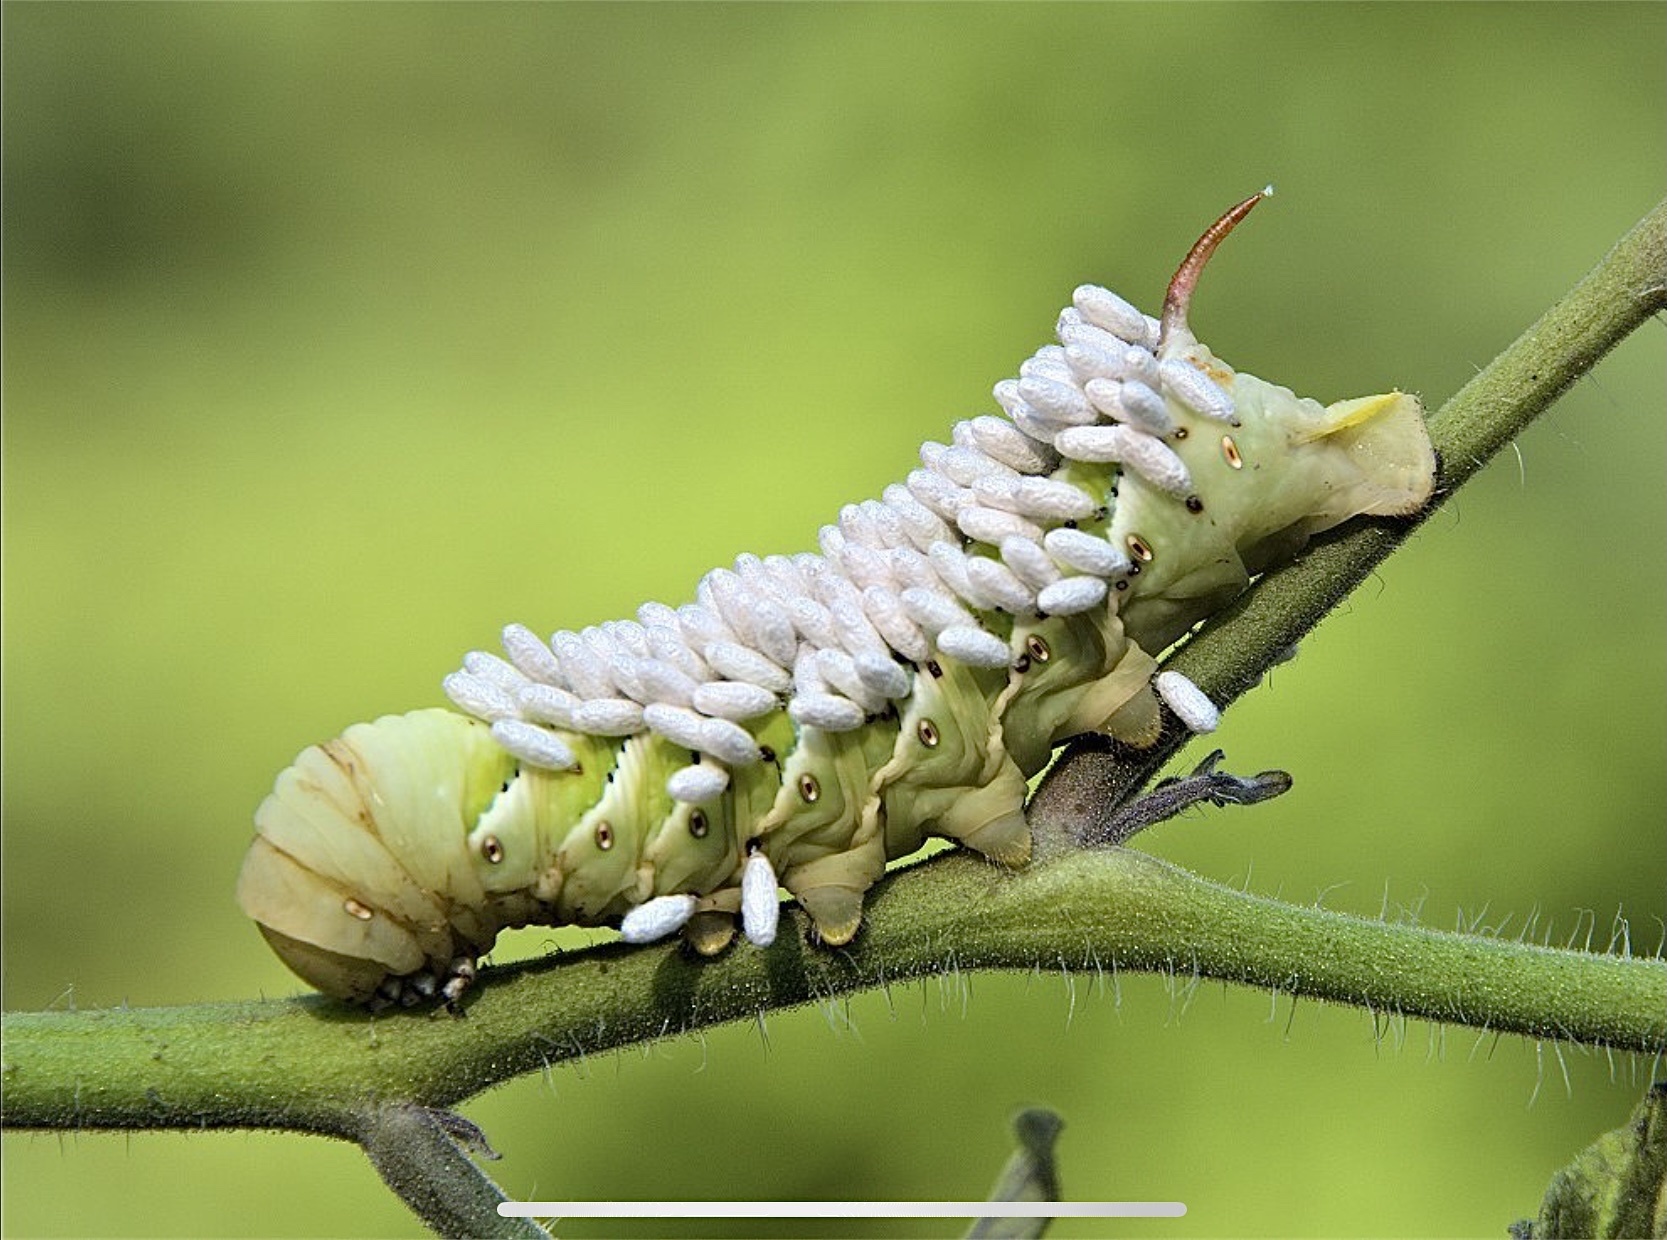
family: Polydnaviriformidae
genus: Bracoviriform
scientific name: Bracoviriform congregatae
